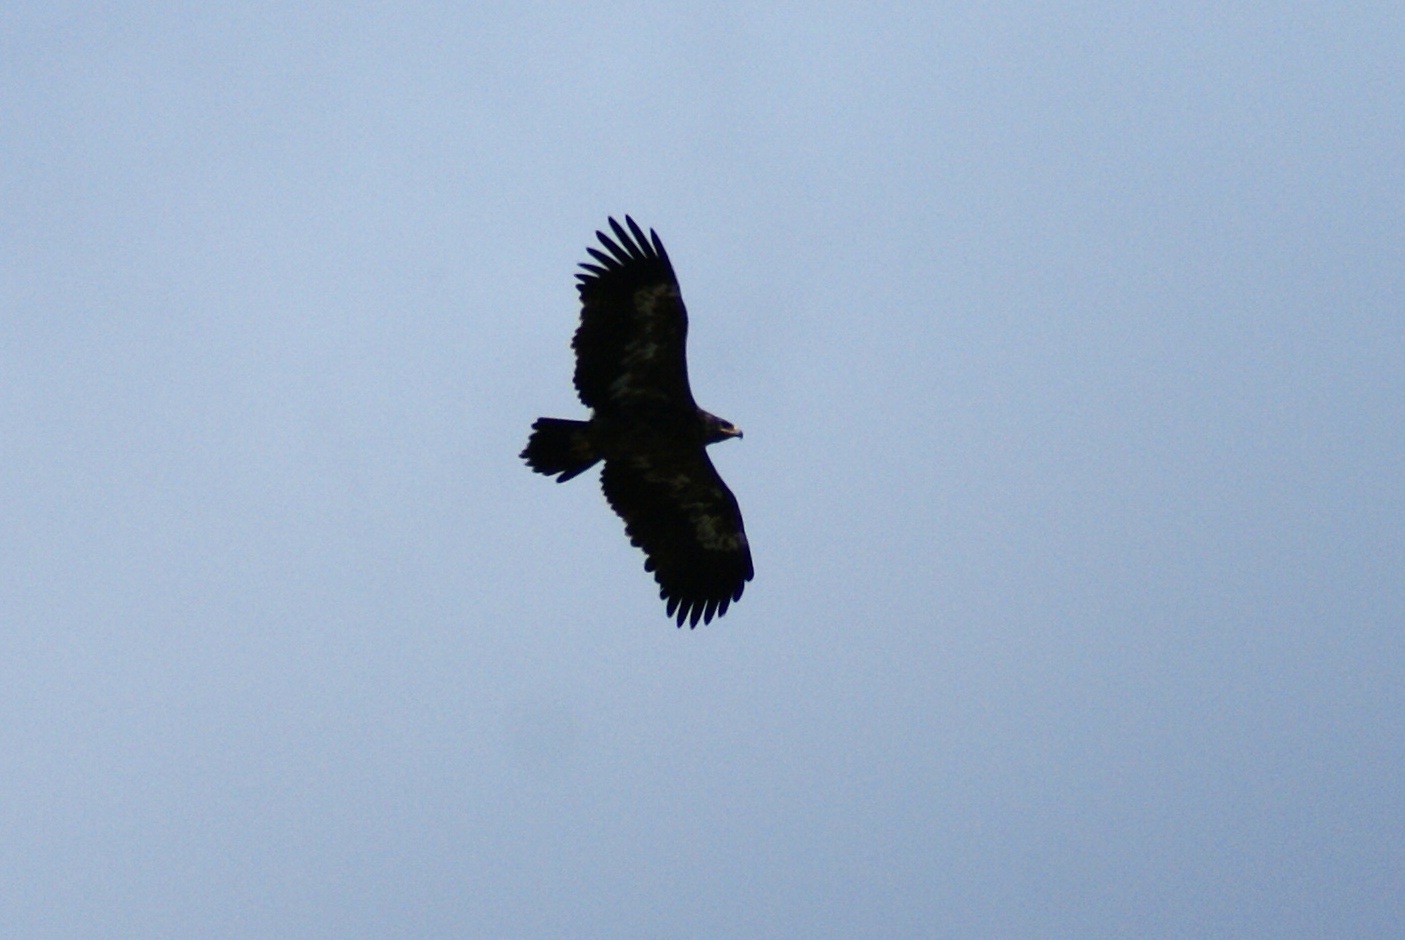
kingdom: Animalia
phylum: Chordata
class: Aves
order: Accipitriformes
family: Accipitridae
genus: Aquila
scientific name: Aquila nipalensis
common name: Steppe eagle
